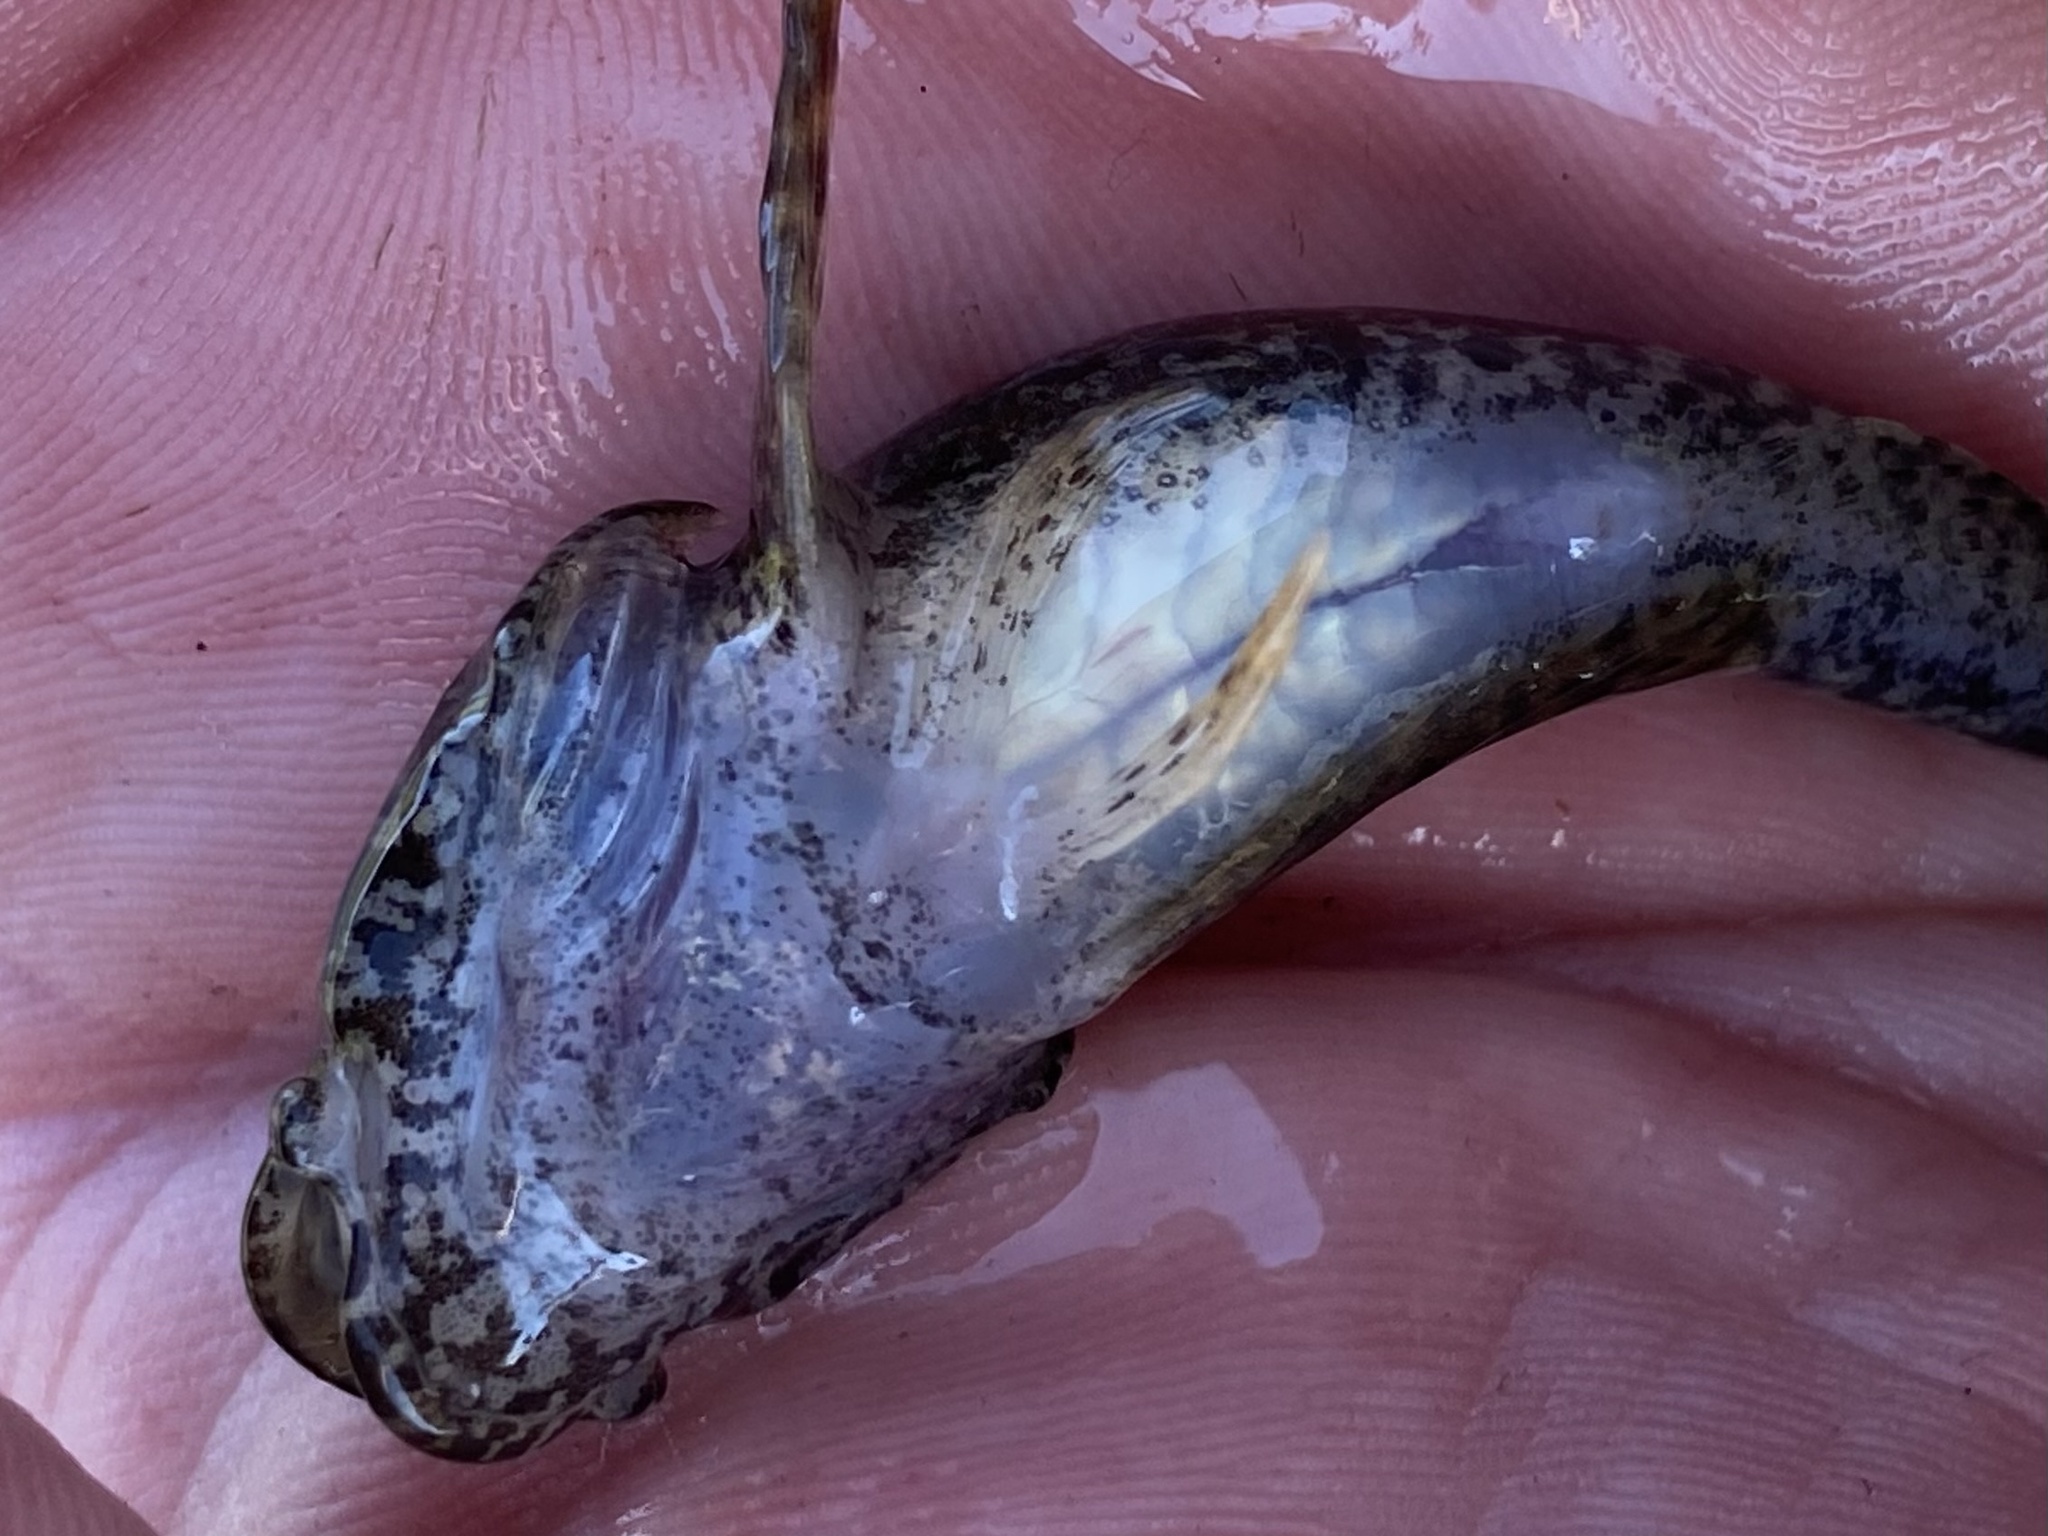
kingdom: Animalia
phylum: Chordata
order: Scorpaeniformes
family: Cottidae
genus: Cottus
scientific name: Cottus bairdii
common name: Mottled sculpin
